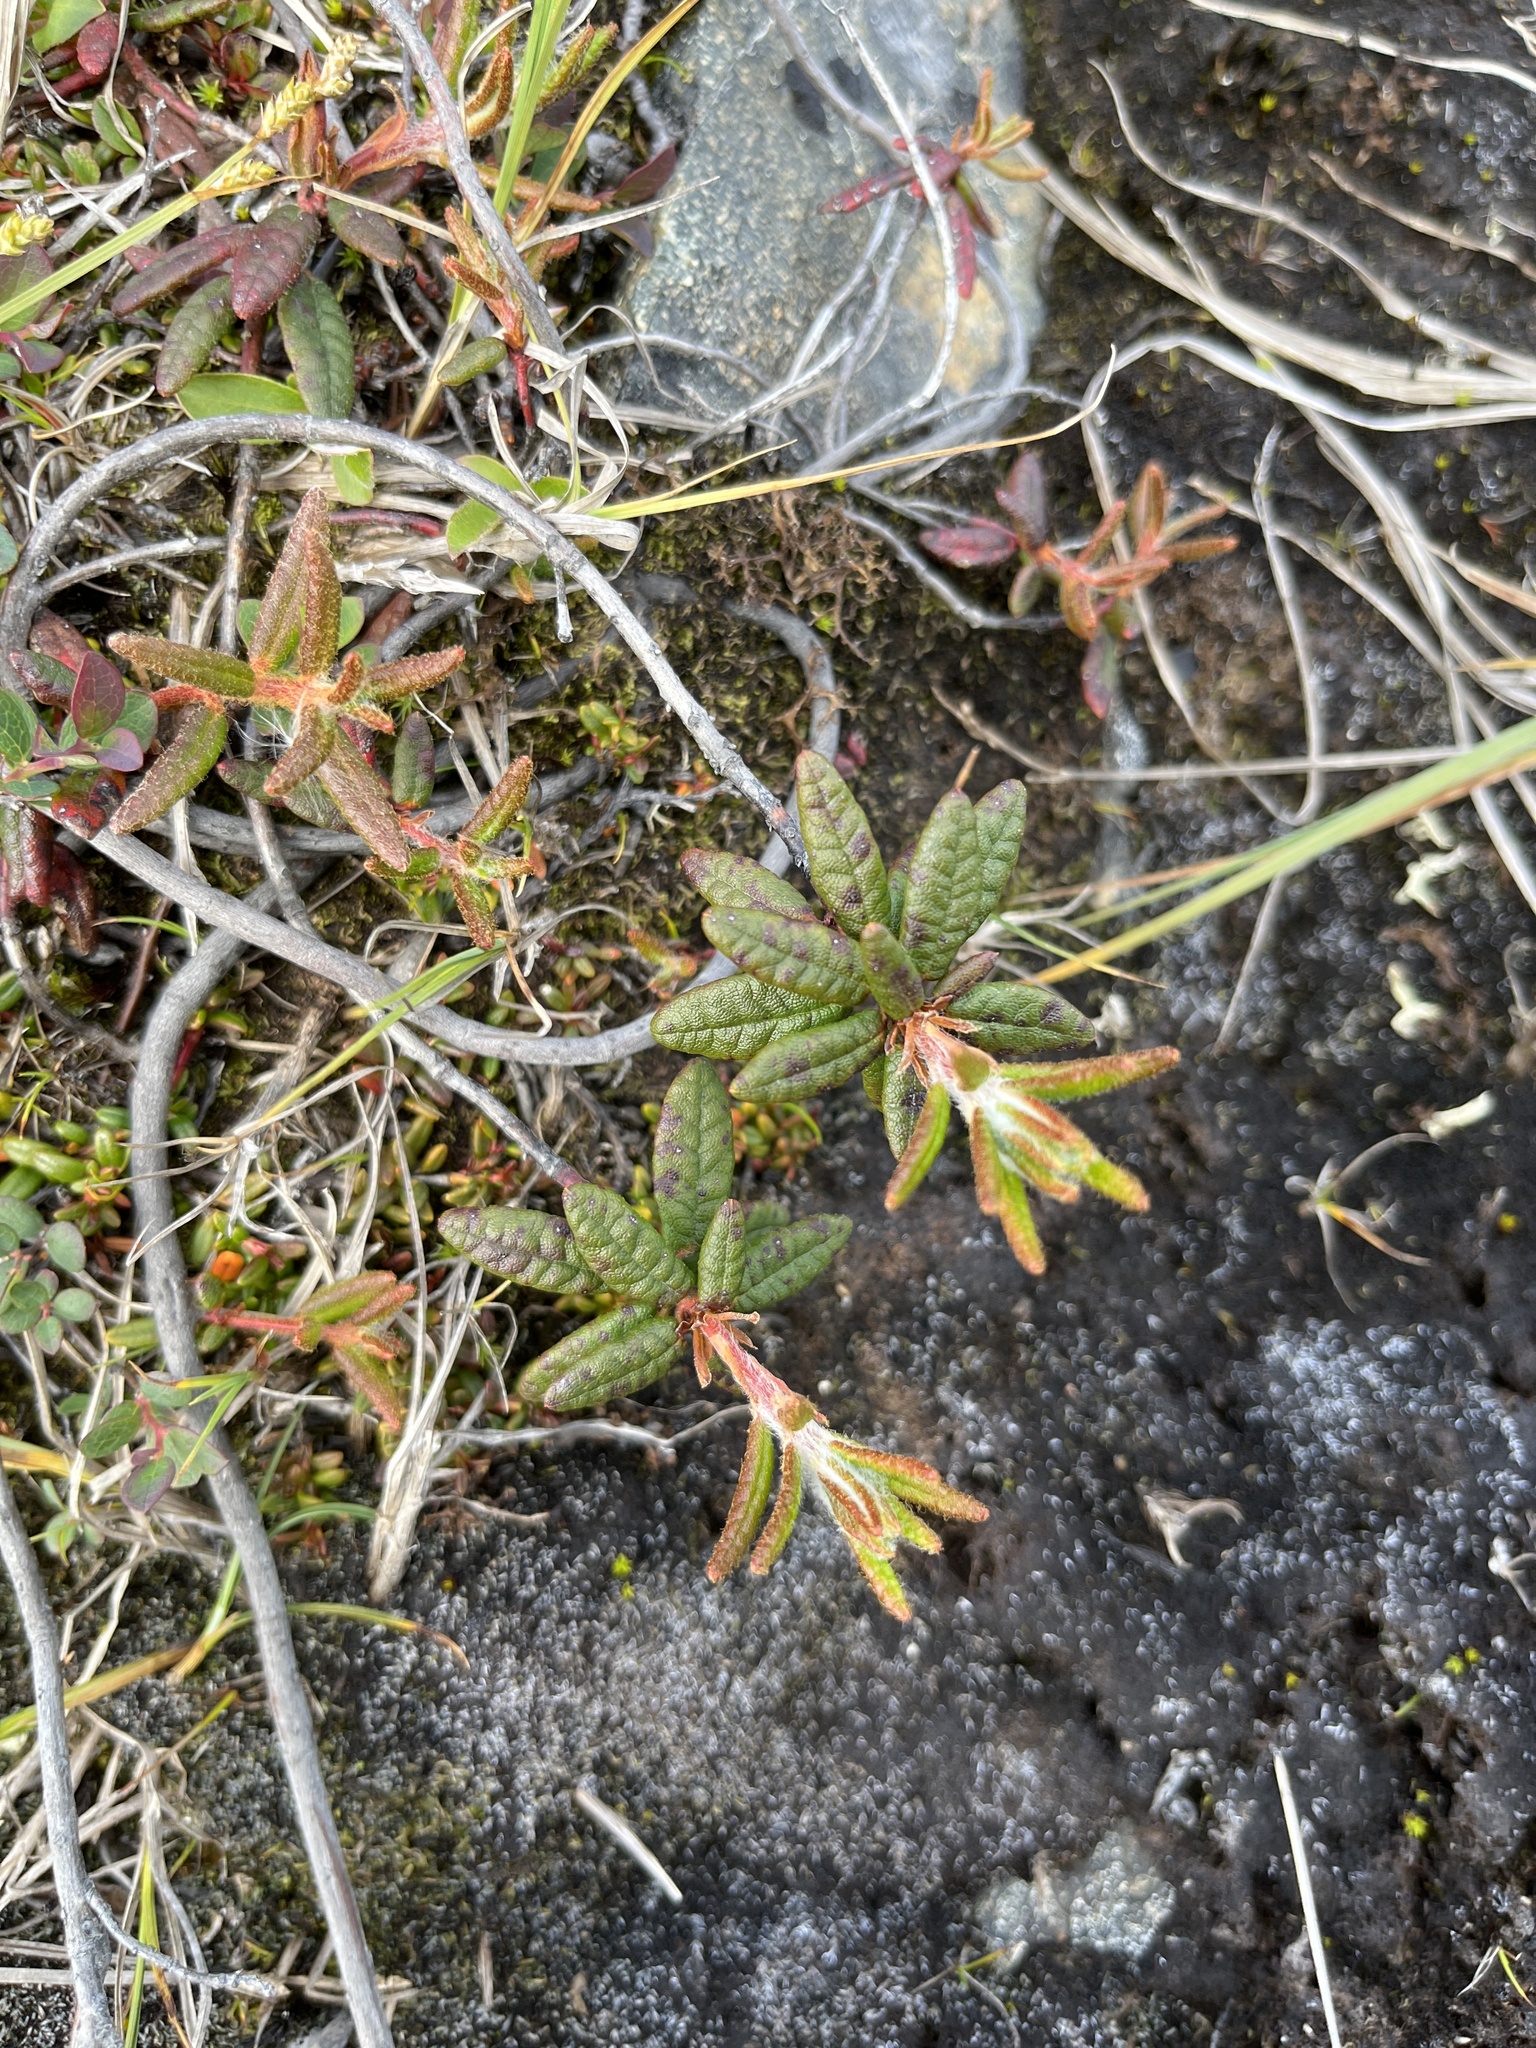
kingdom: Plantae
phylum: Tracheophyta
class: Magnoliopsida
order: Ericales
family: Ericaceae
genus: Rhododendron
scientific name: Rhododendron groenlandicum
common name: Bog labrador tea
